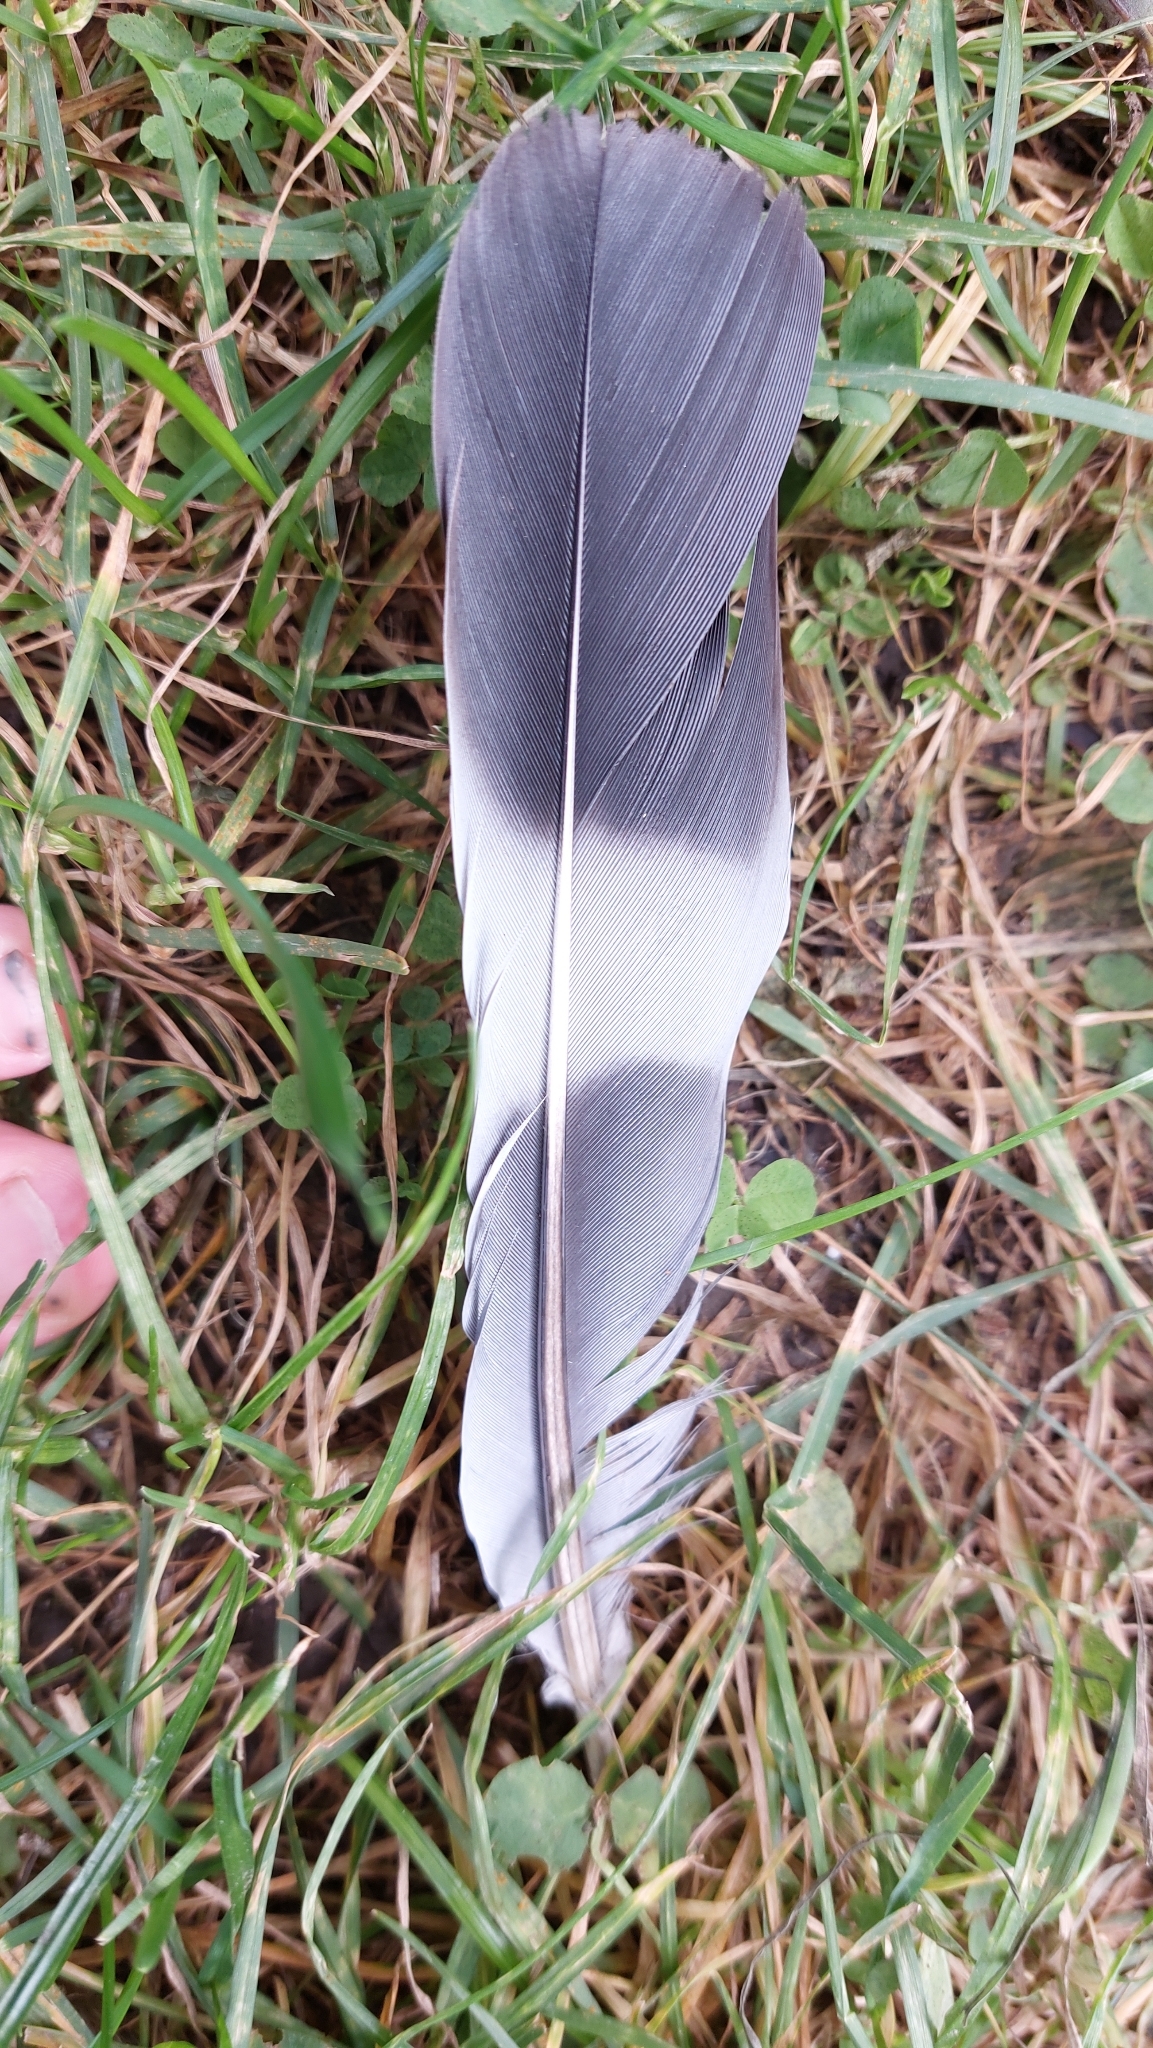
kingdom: Animalia
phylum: Chordata
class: Aves
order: Columbiformes
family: Columbidae
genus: Columba
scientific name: Columba palumbus
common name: Common wood pigeon
